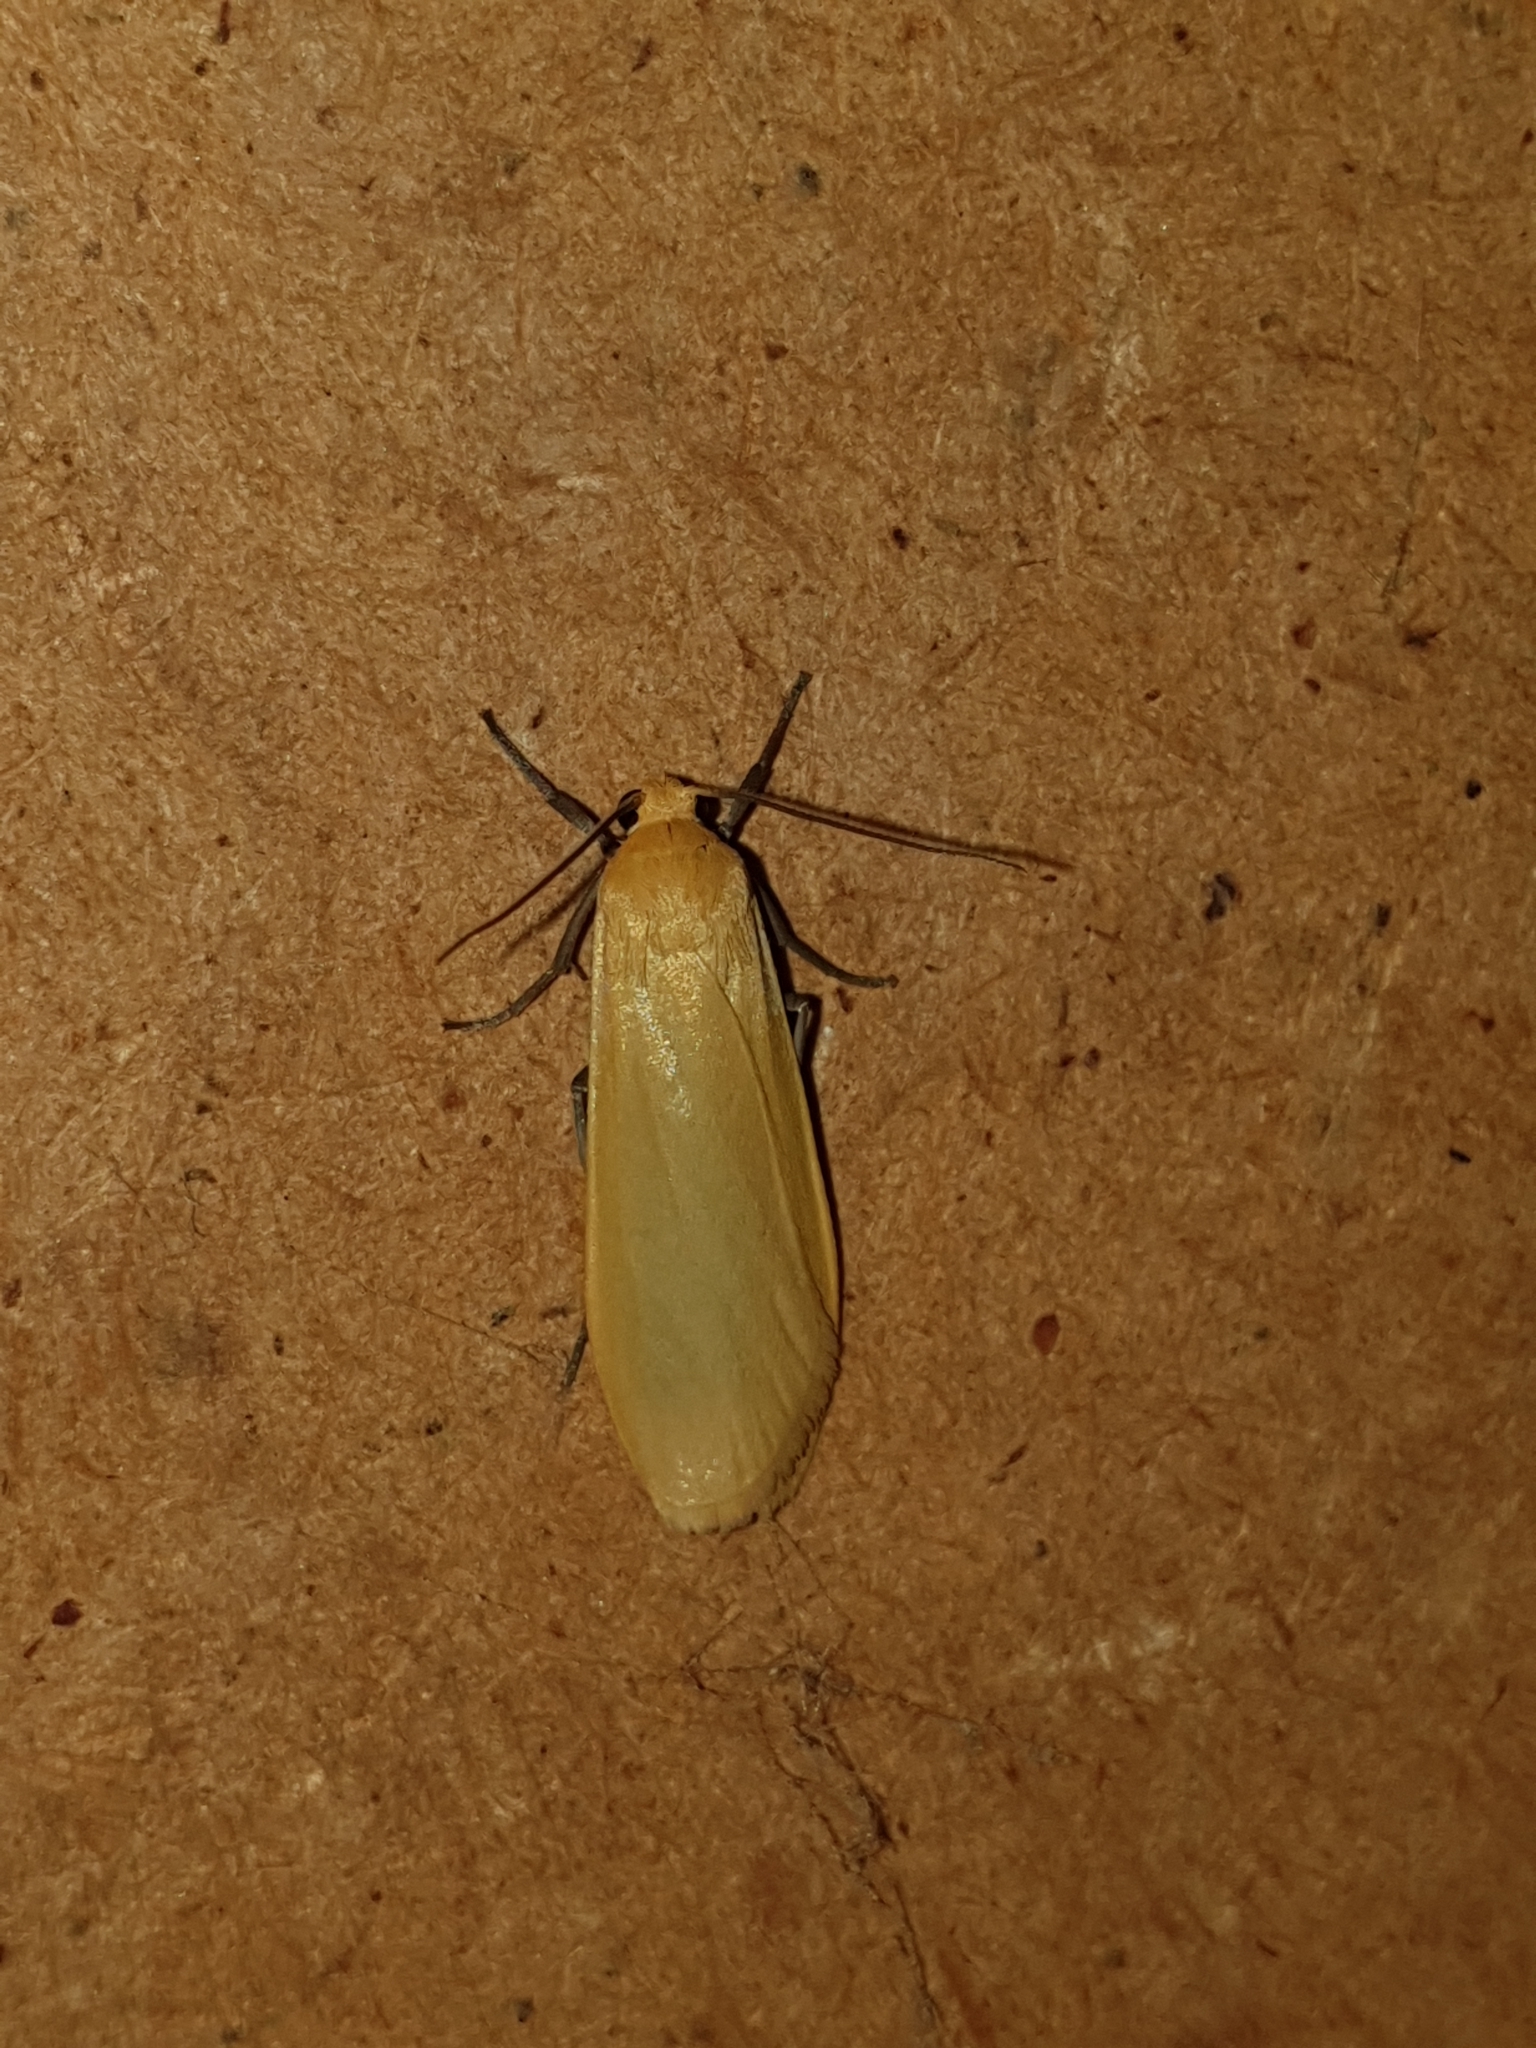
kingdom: Animalia
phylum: Arthropoda
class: Insecta
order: Lepidoptera
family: Erebidae
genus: Wittia
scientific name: Wittia sororcula
